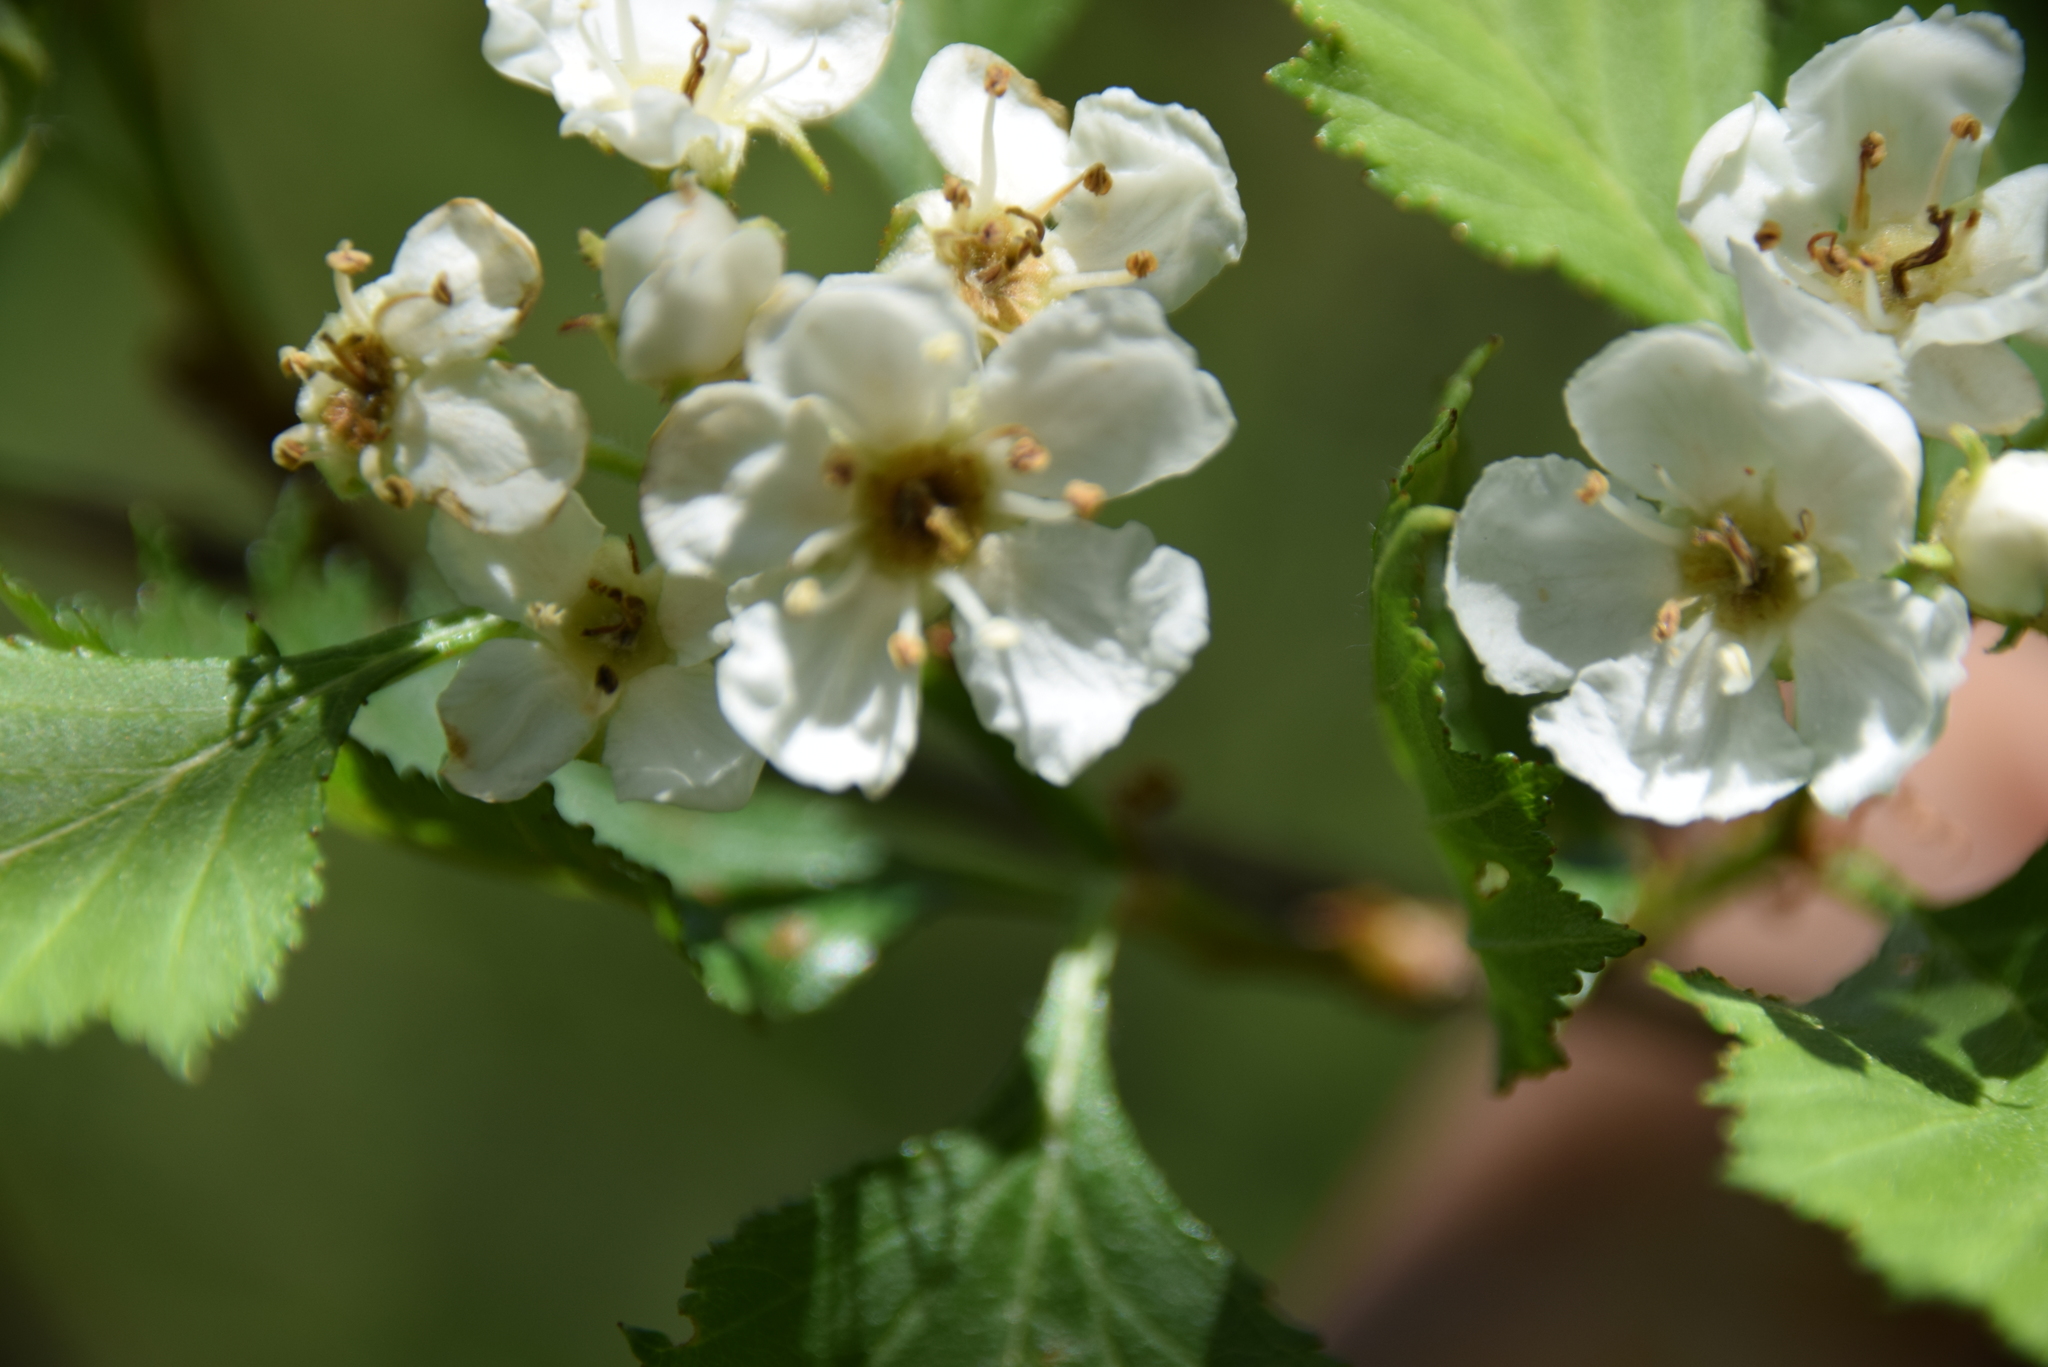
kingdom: Plantae
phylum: Tracheophyta
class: Magnoliopsida
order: Rosales
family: Rosaceae
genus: Crataegus
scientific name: Crataegus chrysocarpa
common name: Fire-berry hawthorn
